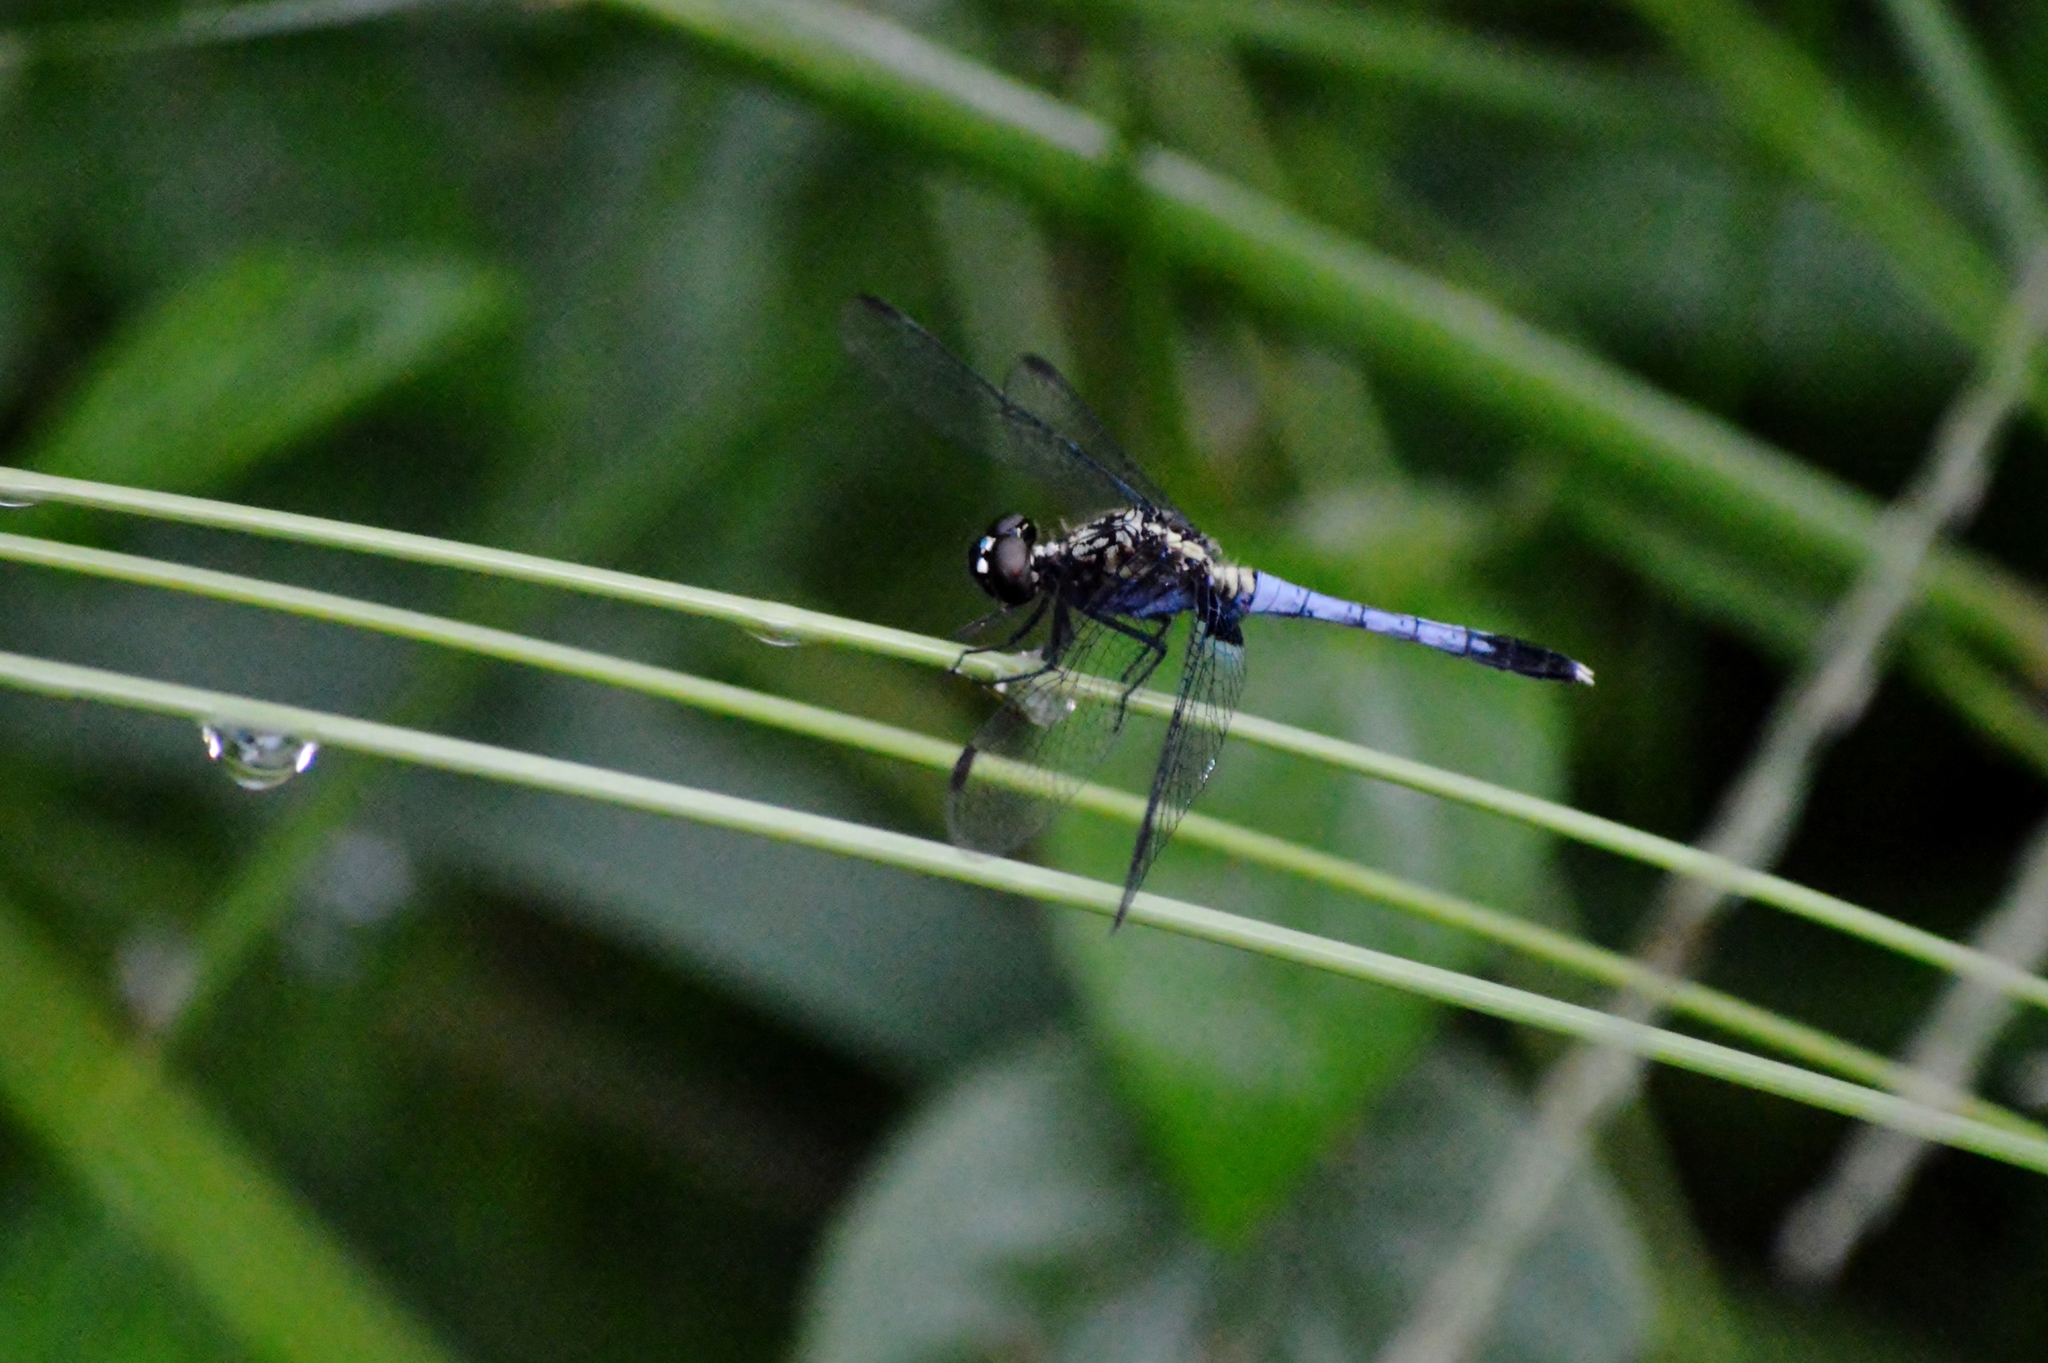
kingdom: Animalia
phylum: Arthropoda
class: Insecta
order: Odonata
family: Libellulidae
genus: Erythrodiplax
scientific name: Erythrodiplax avittata
